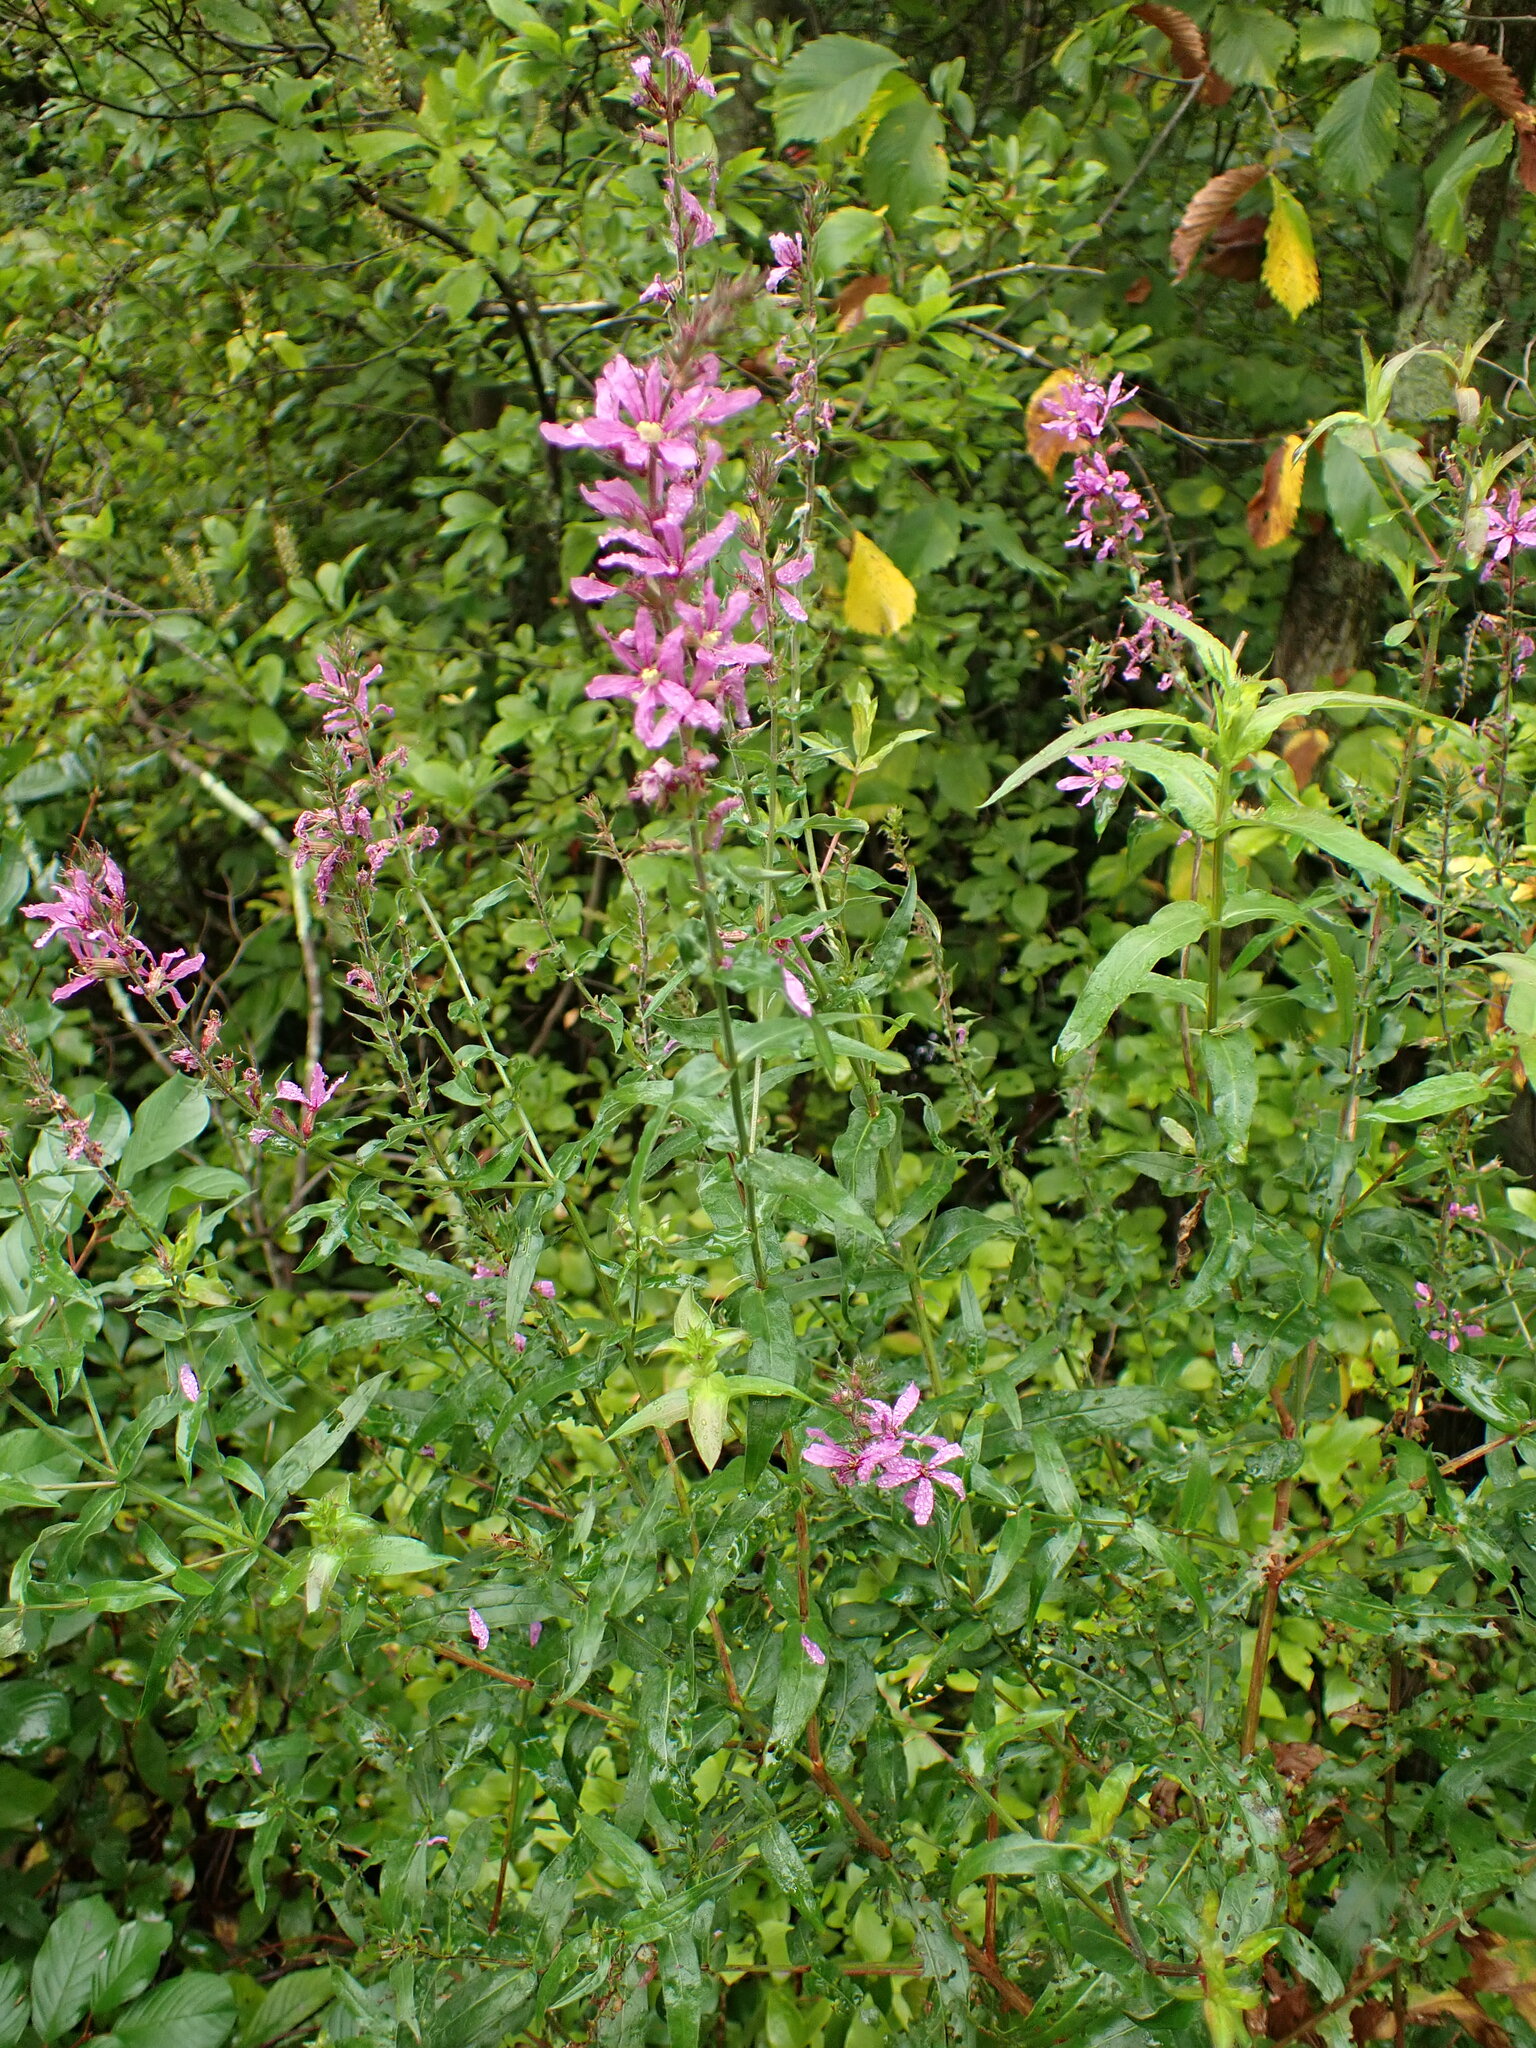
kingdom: Plantae
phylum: Tracheophyta
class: Magnoliopsida
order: Myrtales
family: Lythraceae
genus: Lythrum
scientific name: Lythrum salicaria
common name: Purple loosestrife
